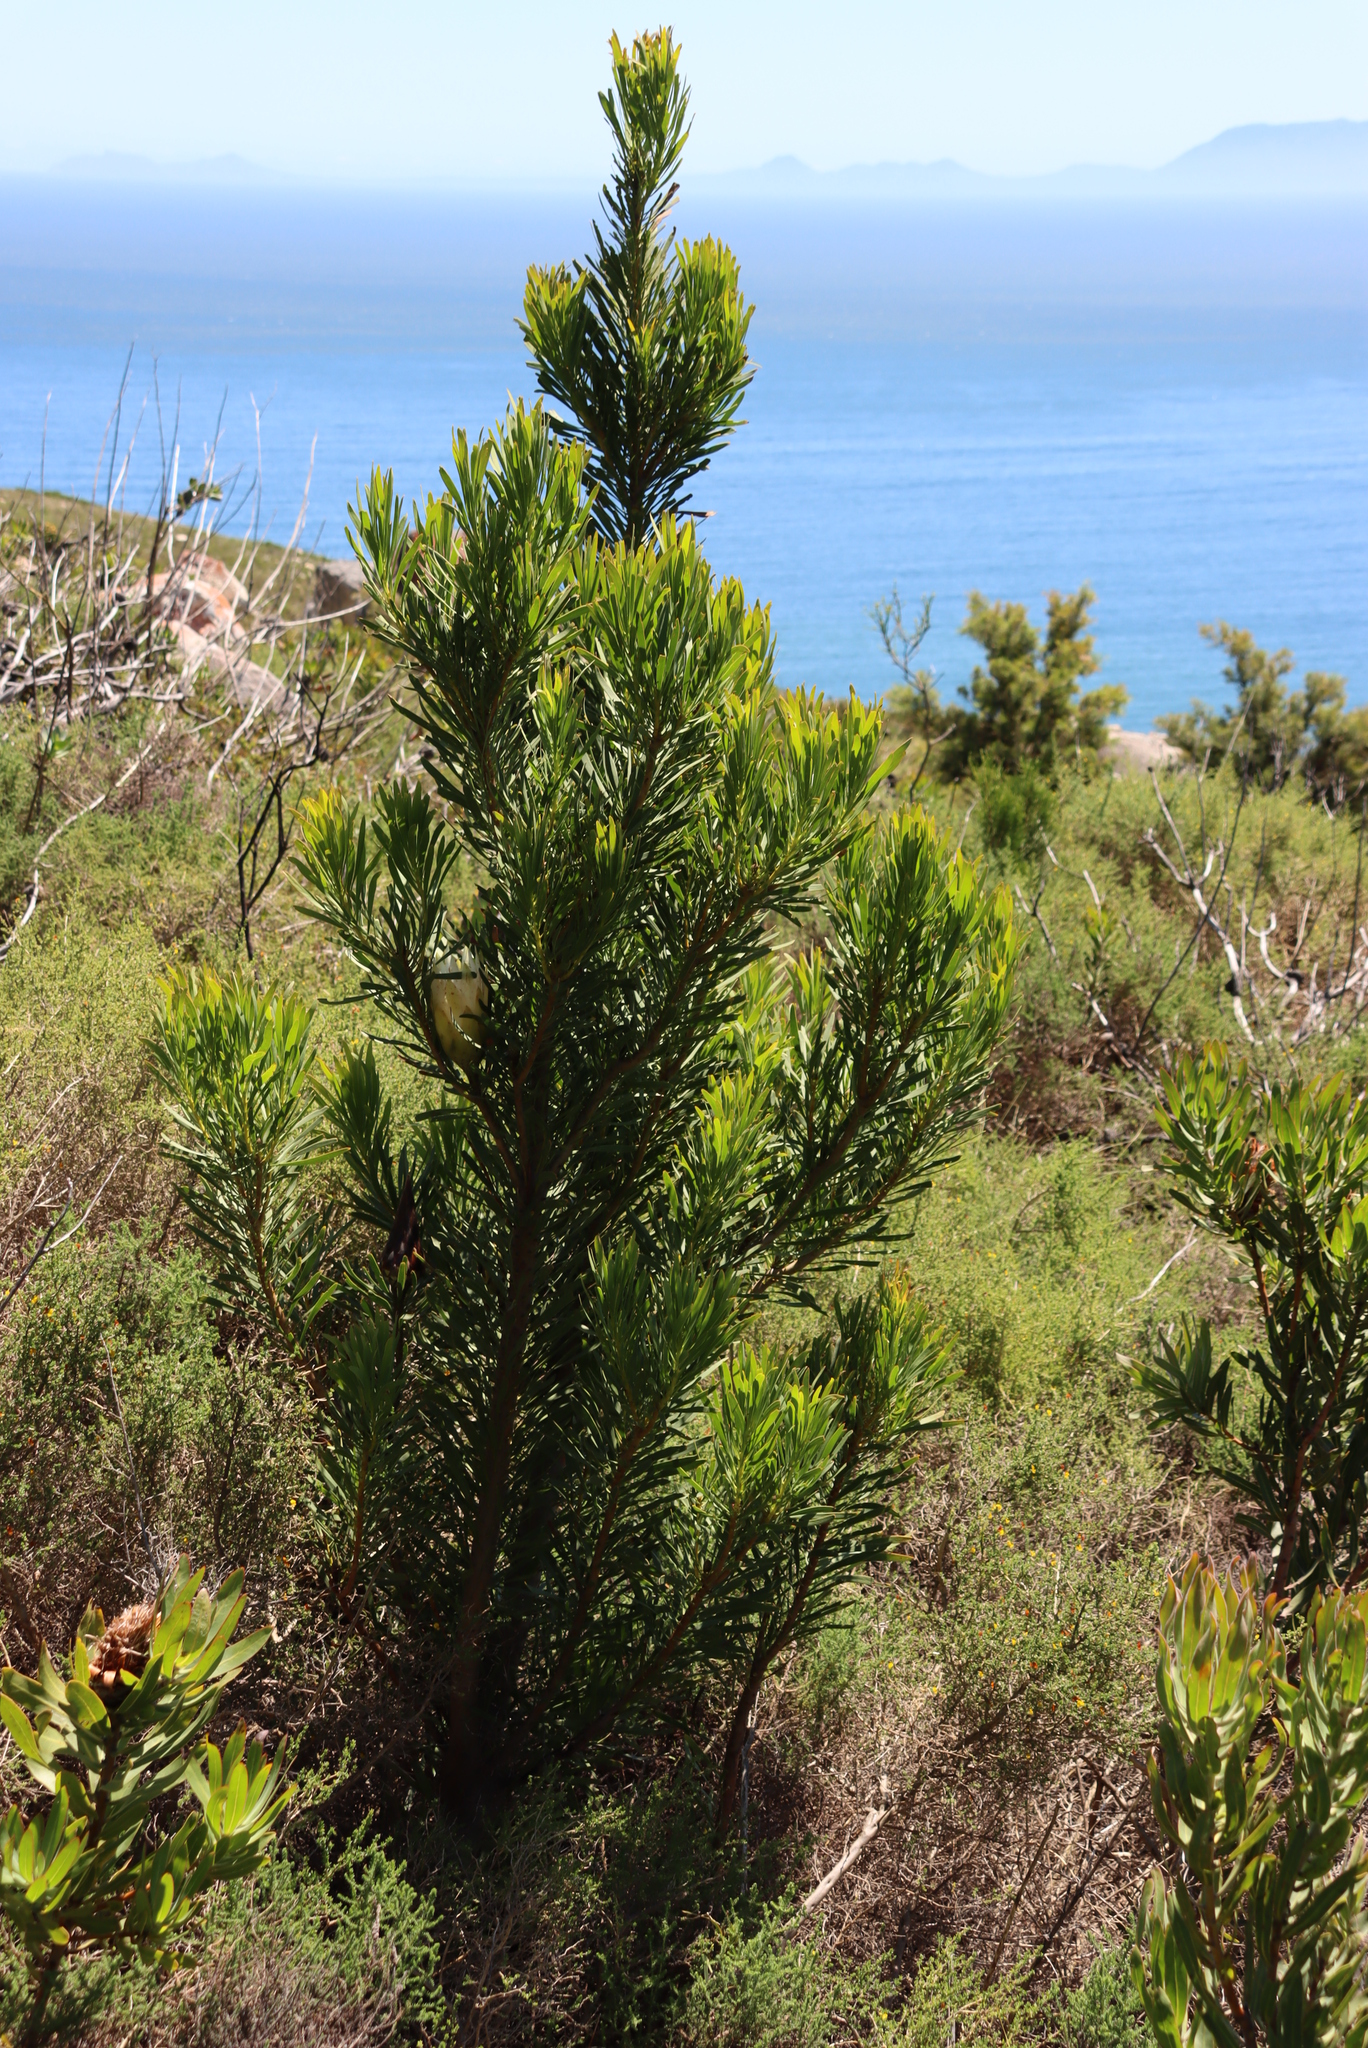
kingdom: Plantae
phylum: Tracheophyta
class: Magnoliopsida
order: Proteales
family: Proteaceae
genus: Protea
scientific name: Protea repens
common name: Sugarbush
